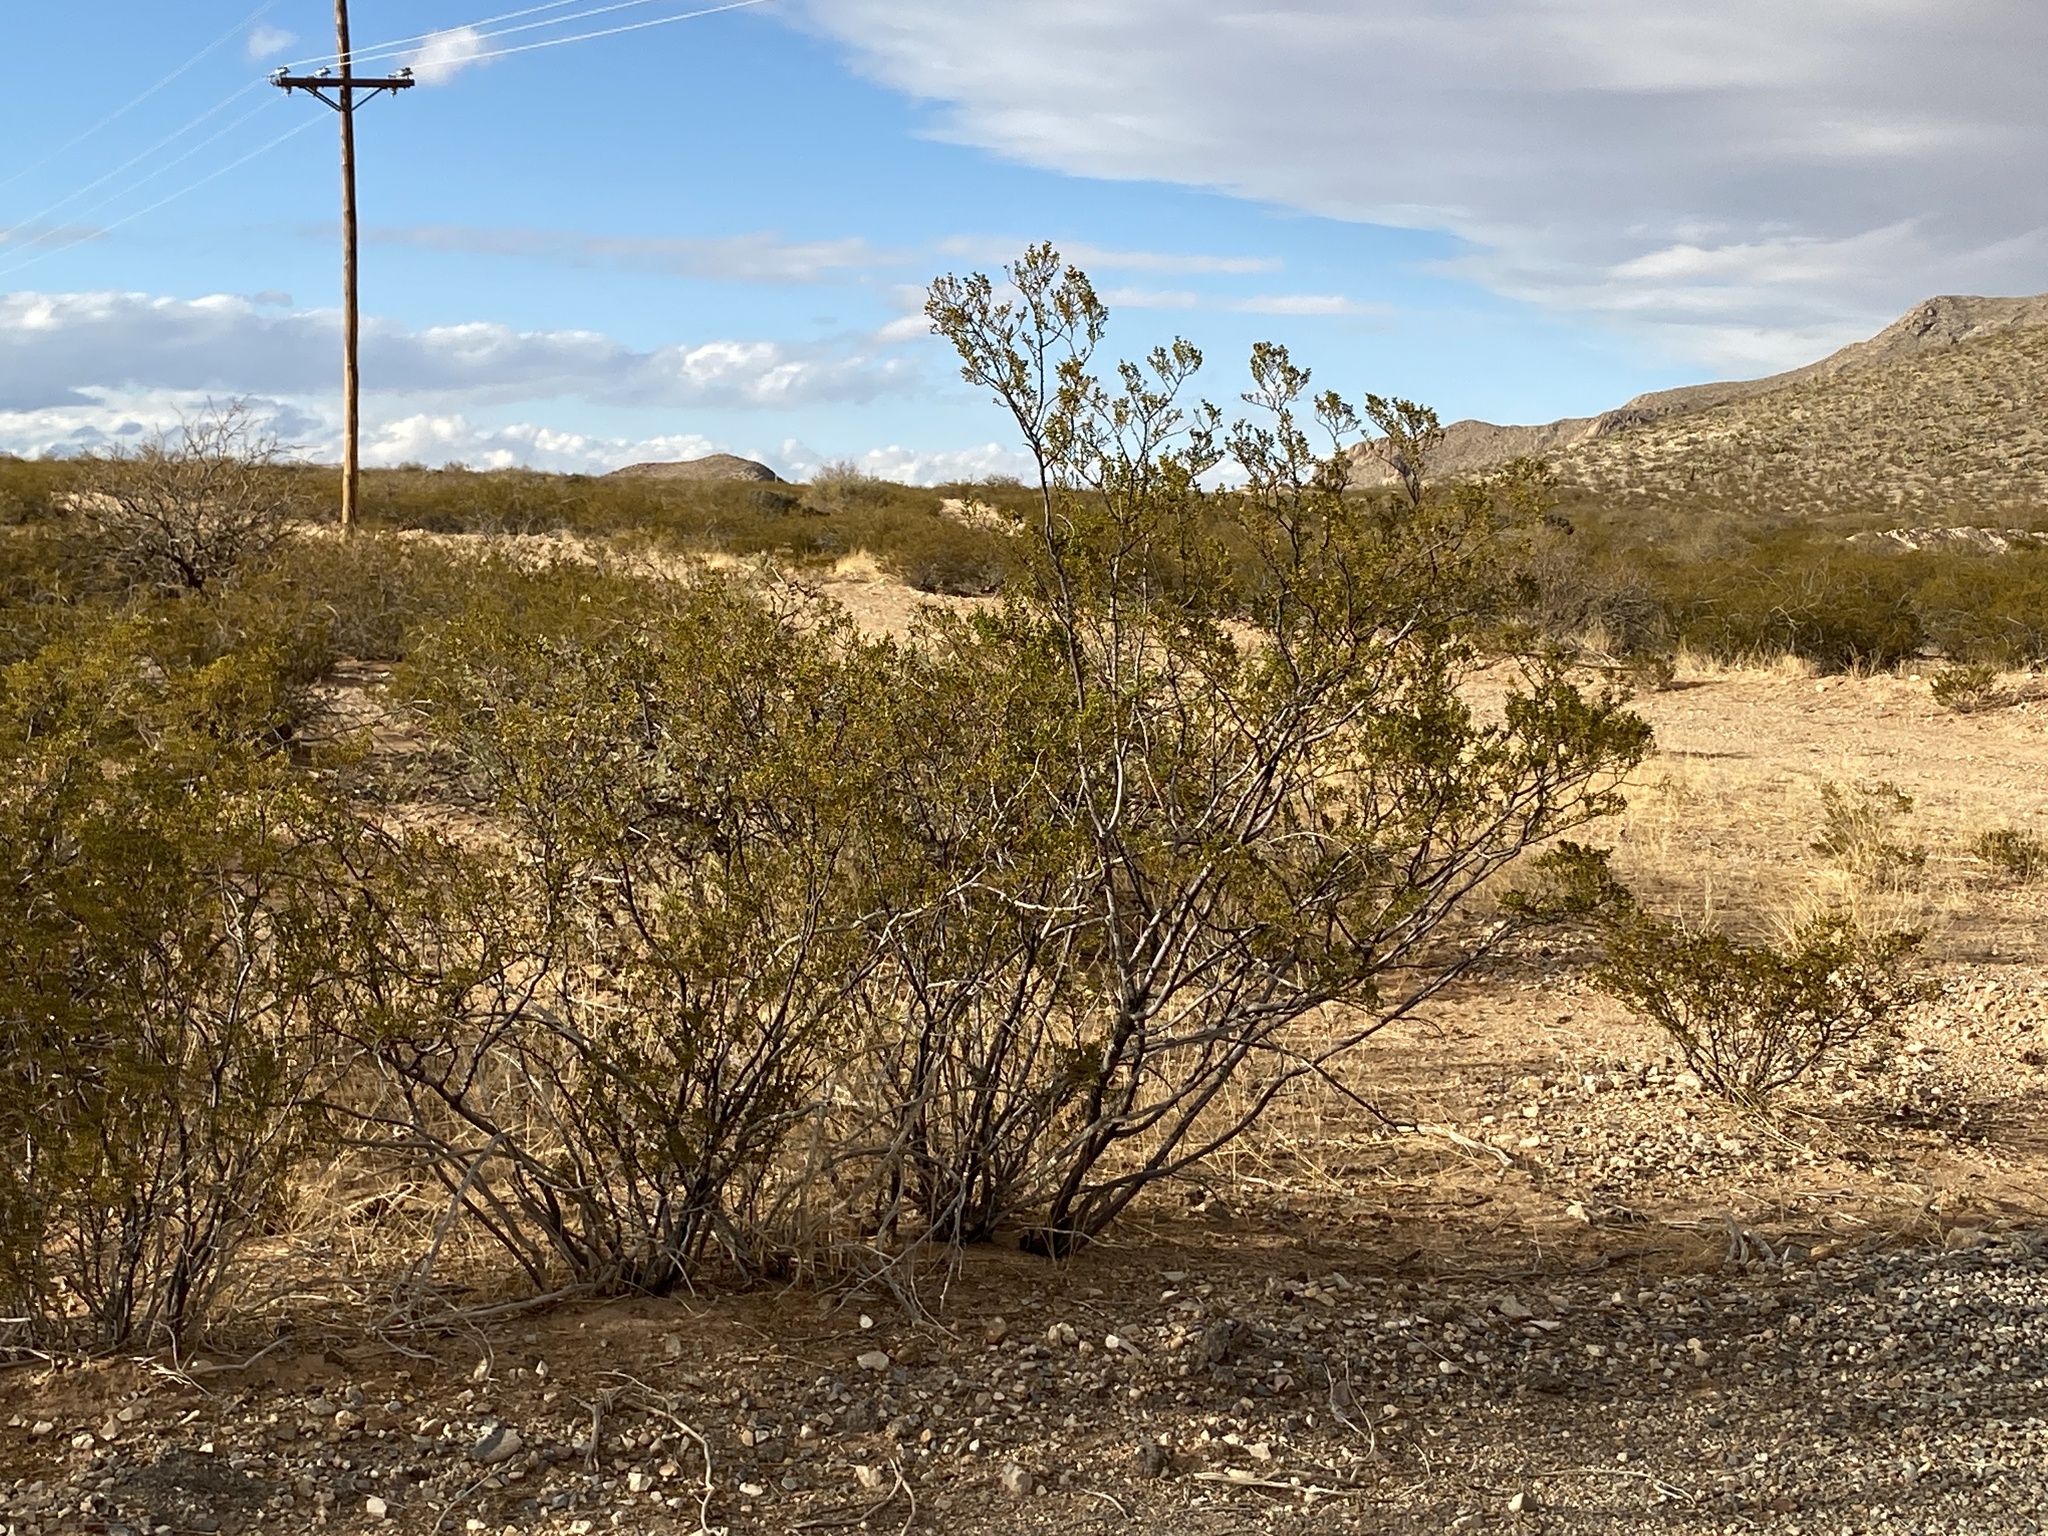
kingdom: Plantae
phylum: Tracheophyta
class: Magnoliopsida
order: Zygophyllales
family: Zygophyllaceae
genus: Larrea
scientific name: Larrea tridentata
